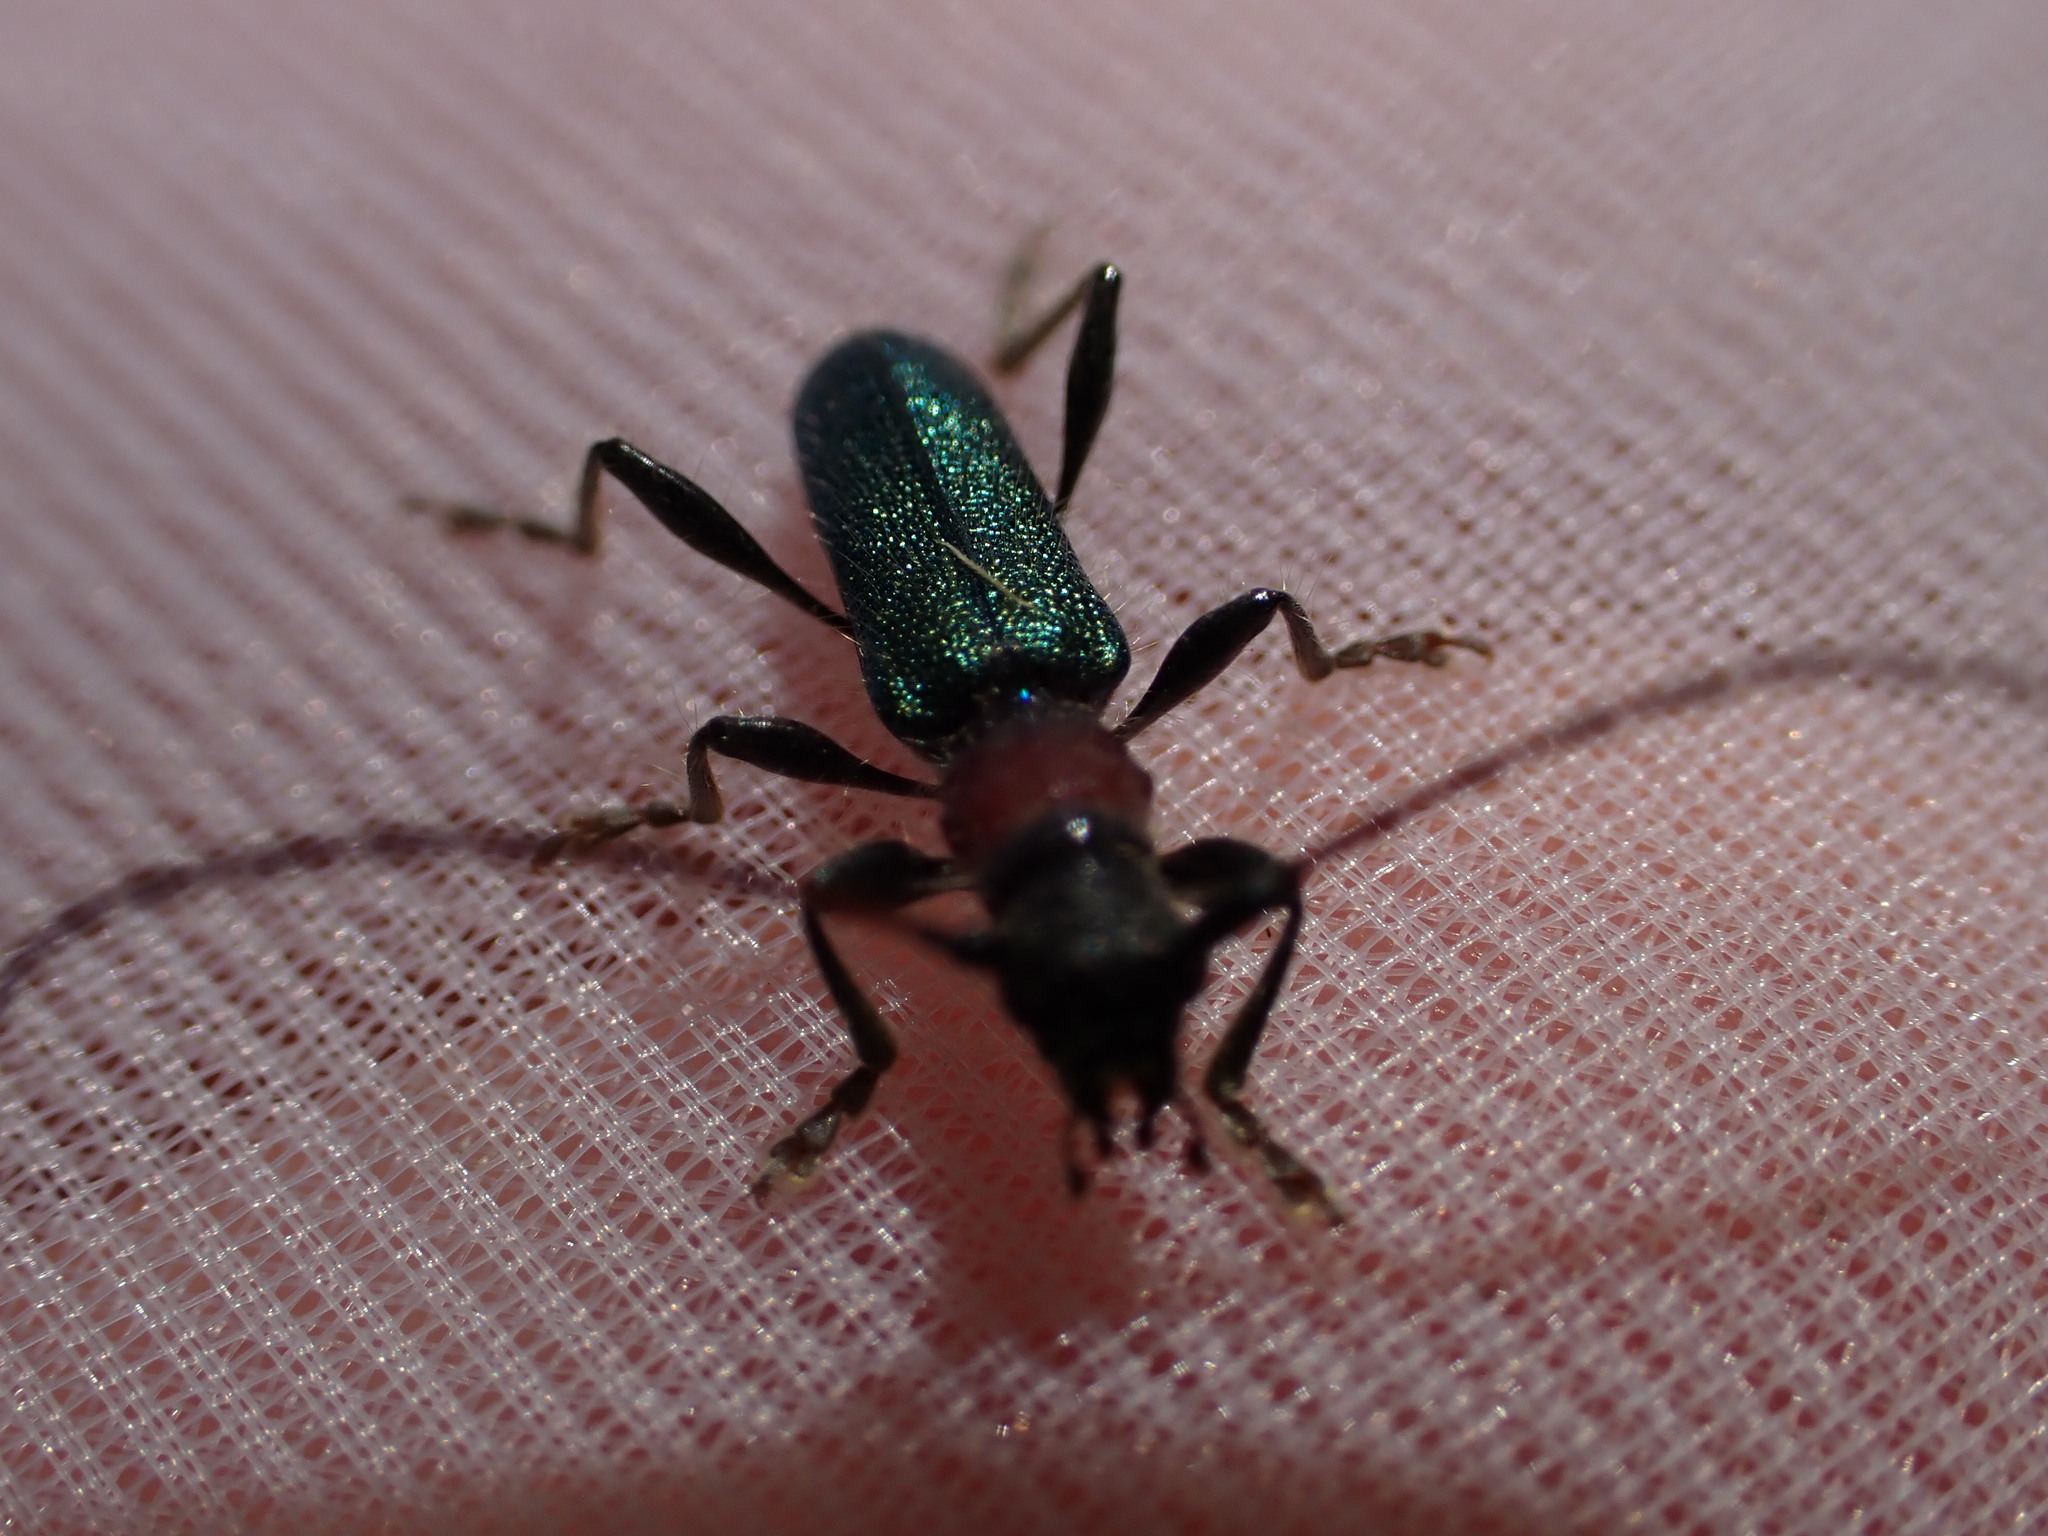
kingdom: Animalia
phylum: Arthropoda
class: Insecta
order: Coleoptera
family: Cerambycidae
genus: Certallum
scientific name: Certallum ebulinum
